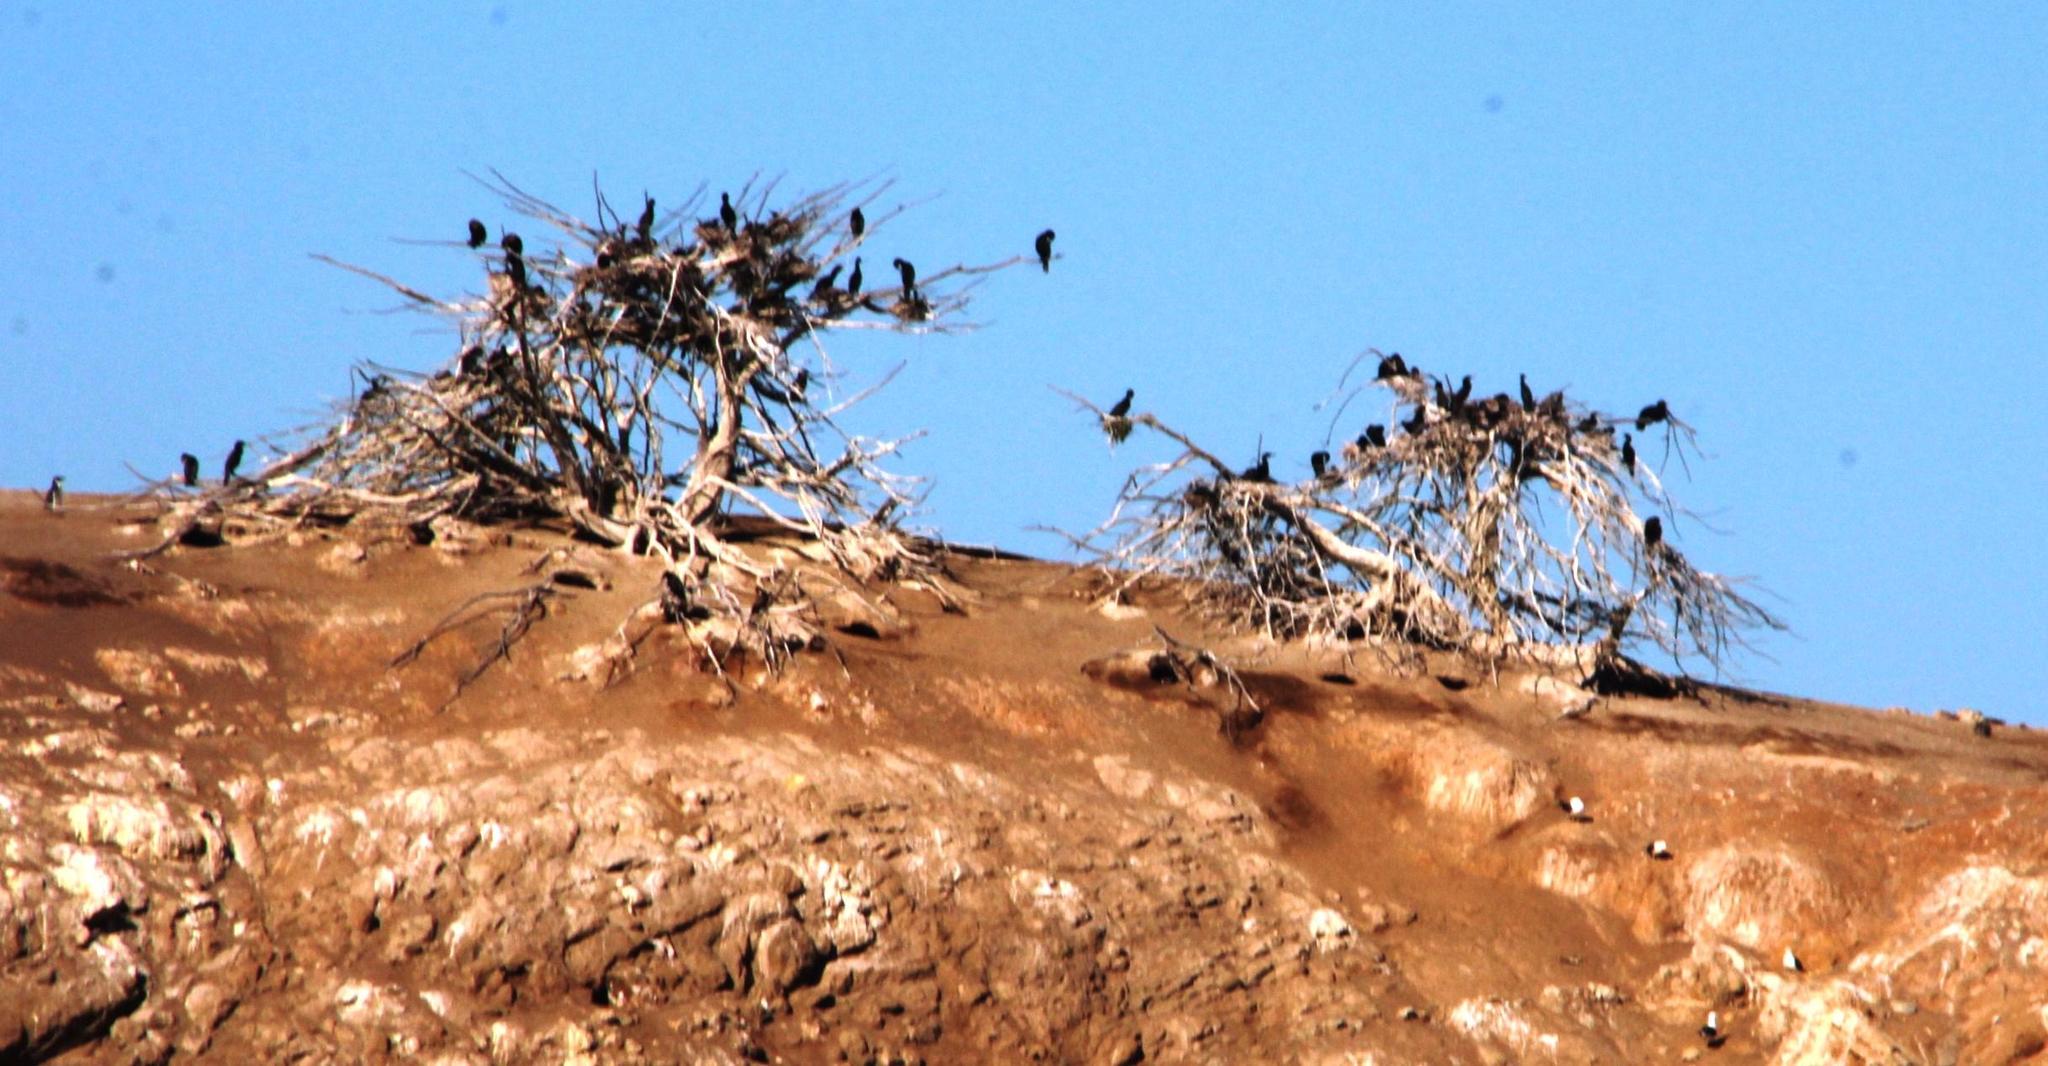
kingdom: Animalia
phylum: Chordata
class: Aves
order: Suliformes
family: Phalacrocoracidae
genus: Phalacrocorax
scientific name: Phalacrocorax brasilianus
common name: Neotropic cormorant
